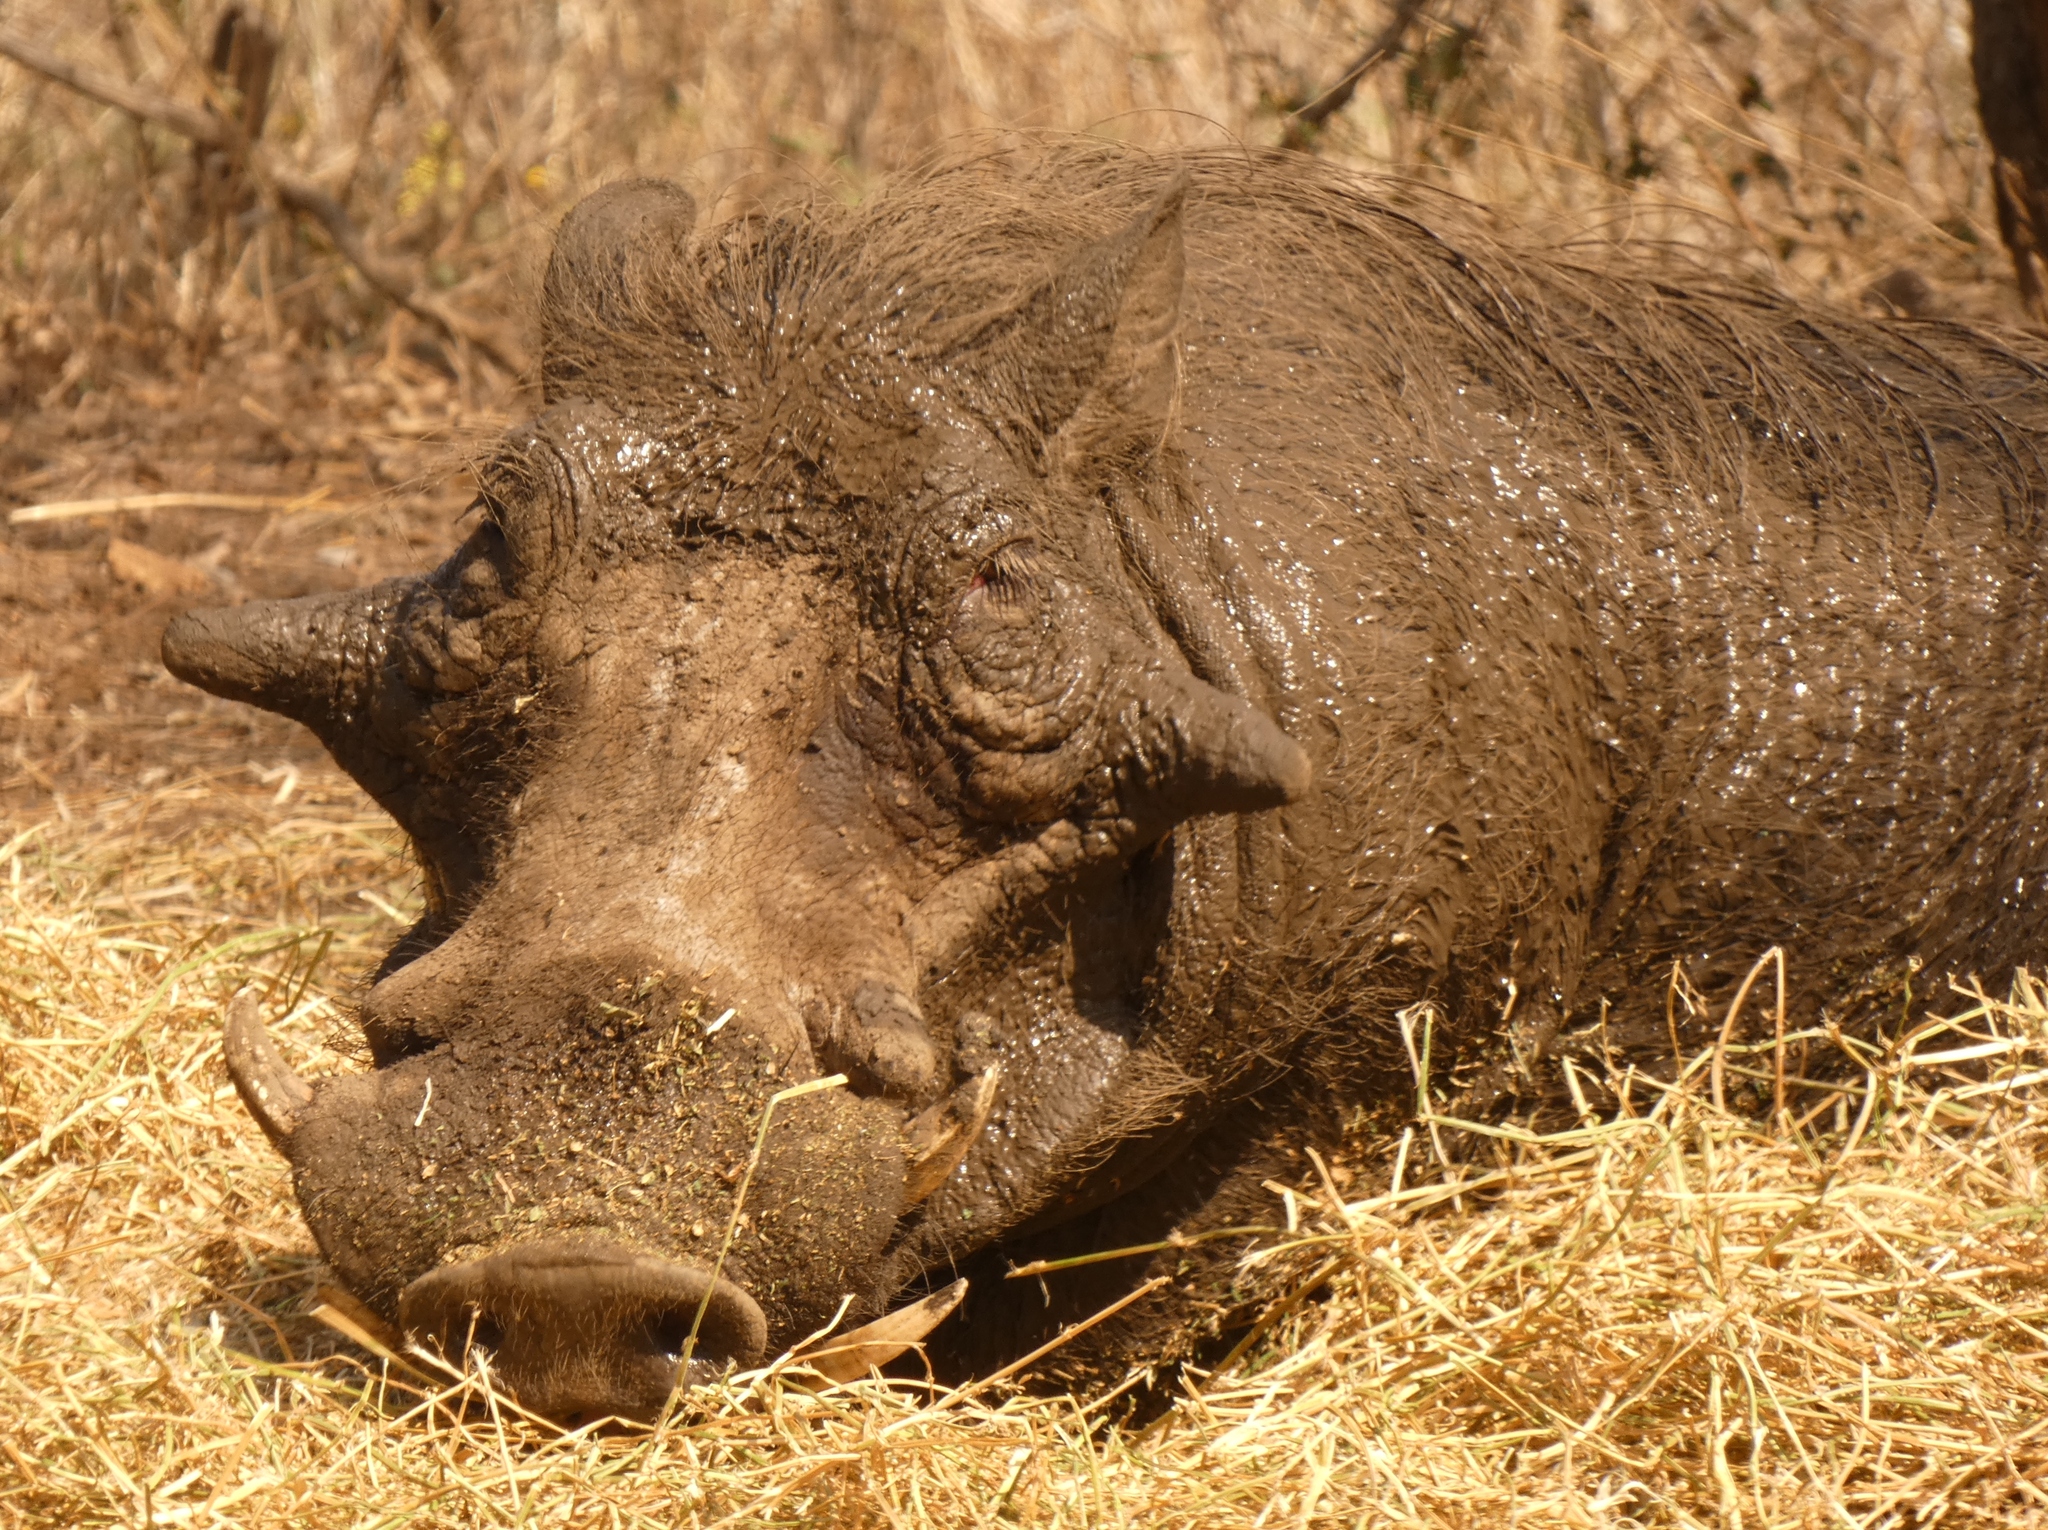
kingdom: Animalia
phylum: Chordata
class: Mammalia
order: Artiodactyla
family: Suidae
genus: Phacochoerus
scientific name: Phacochoerus africanus
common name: Common warthog
